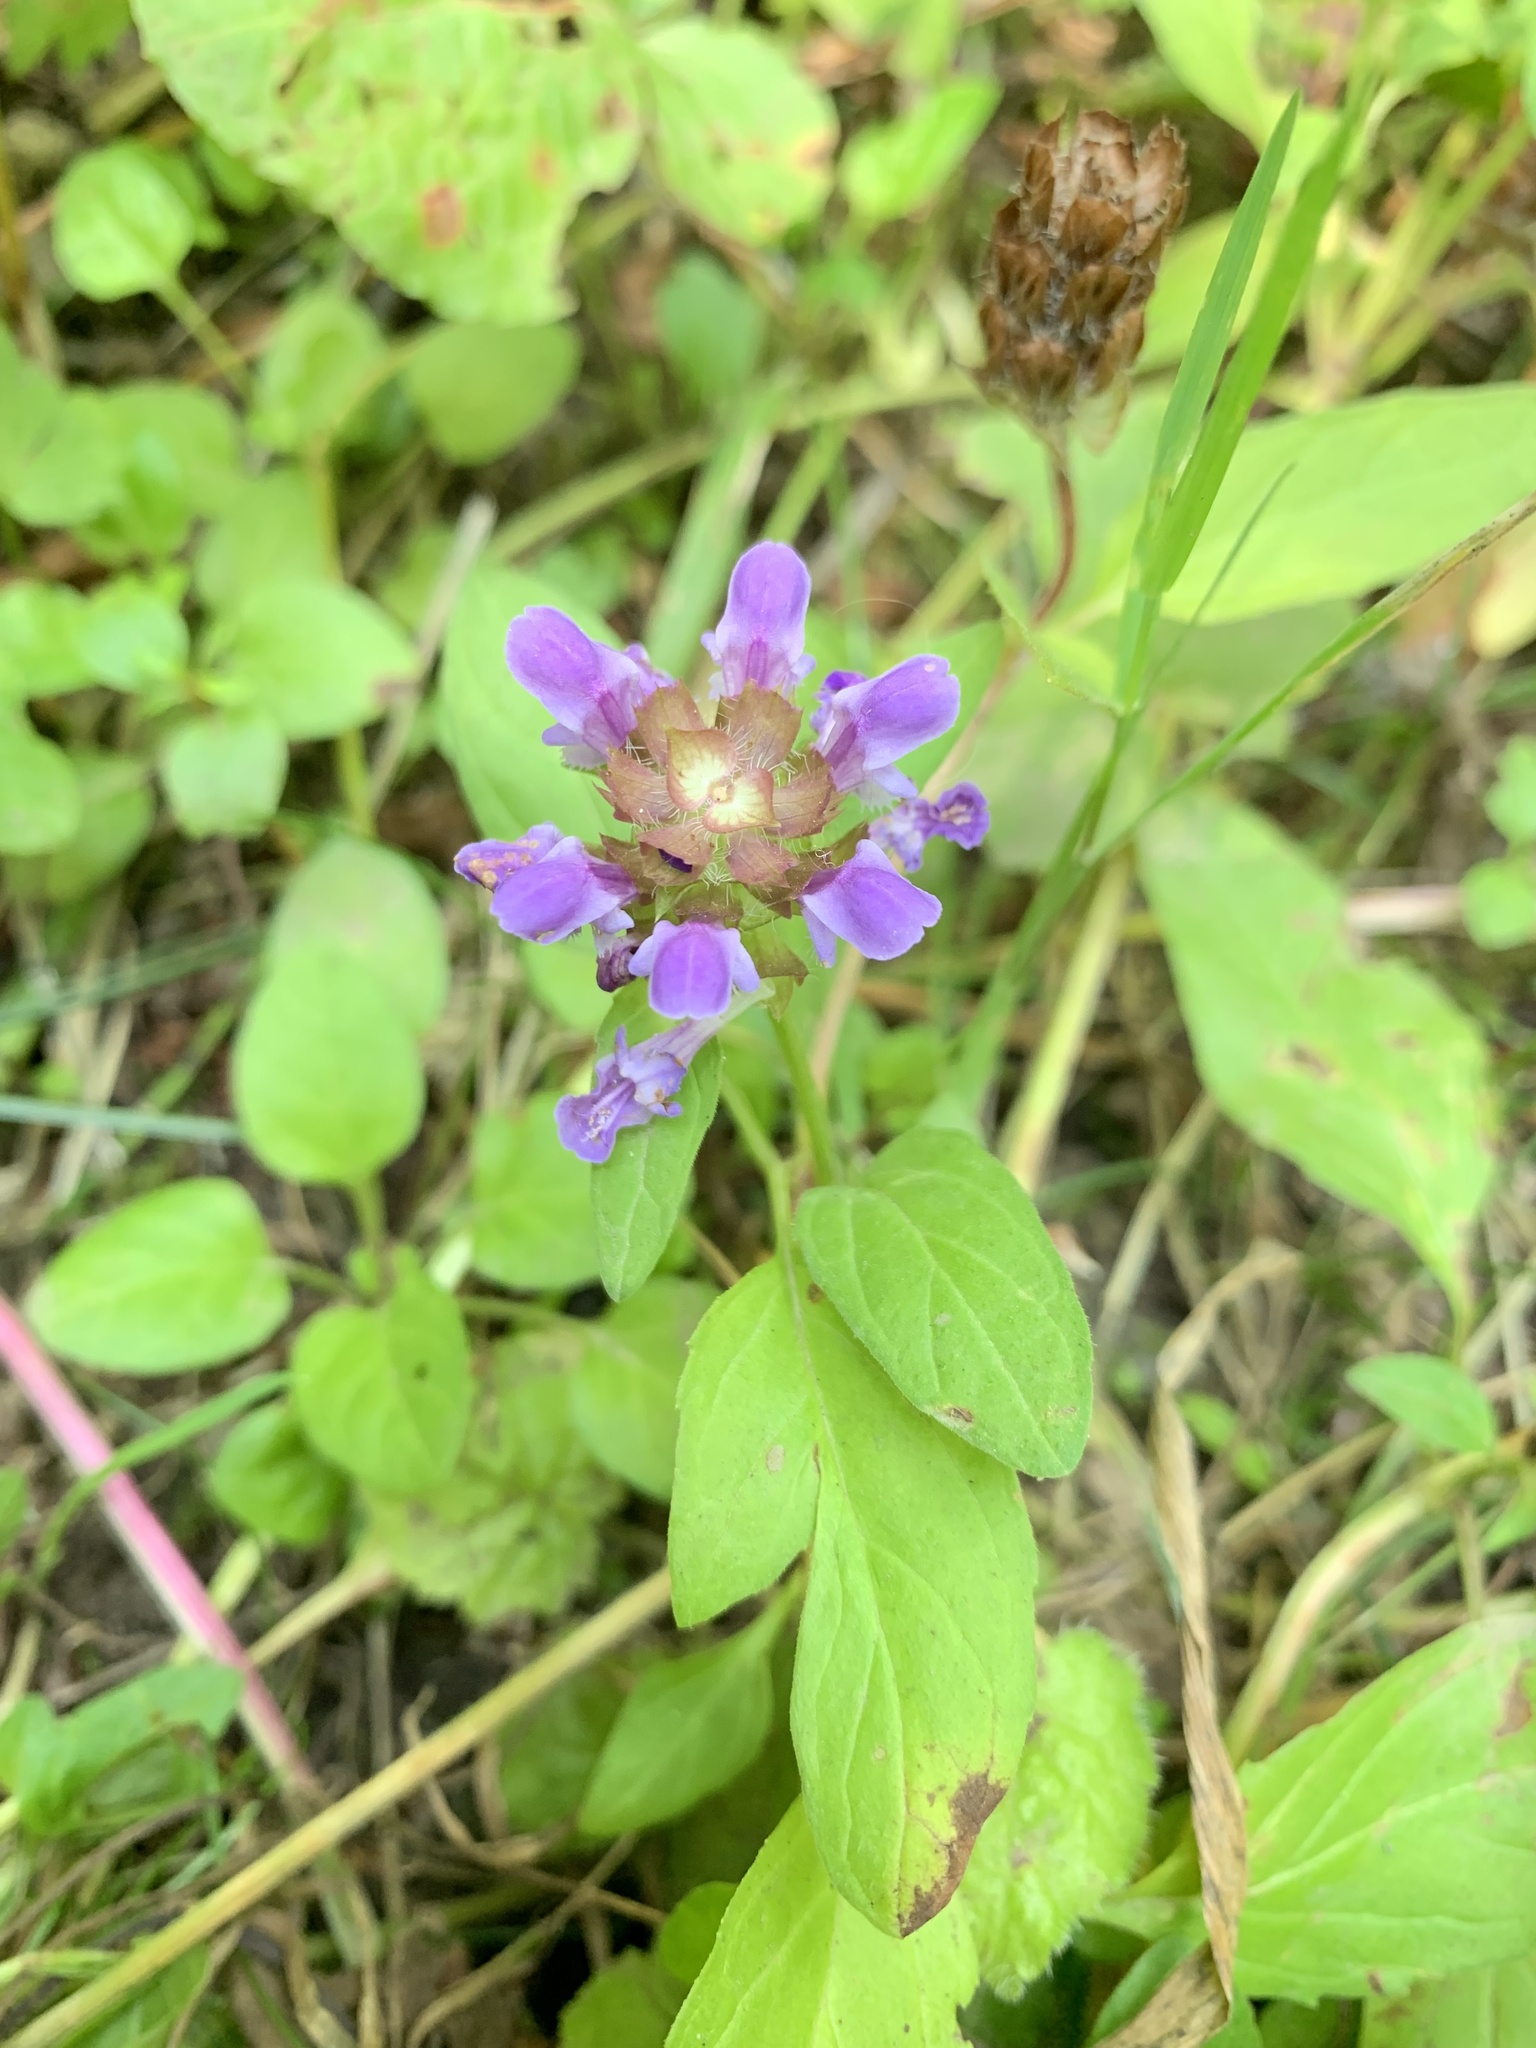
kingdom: Plantae
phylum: Tracheophyta
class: Magnoliopsida
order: Lamiales
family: Lamiaceae
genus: Prunella
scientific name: Prunella vulgaris
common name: Heal-all
